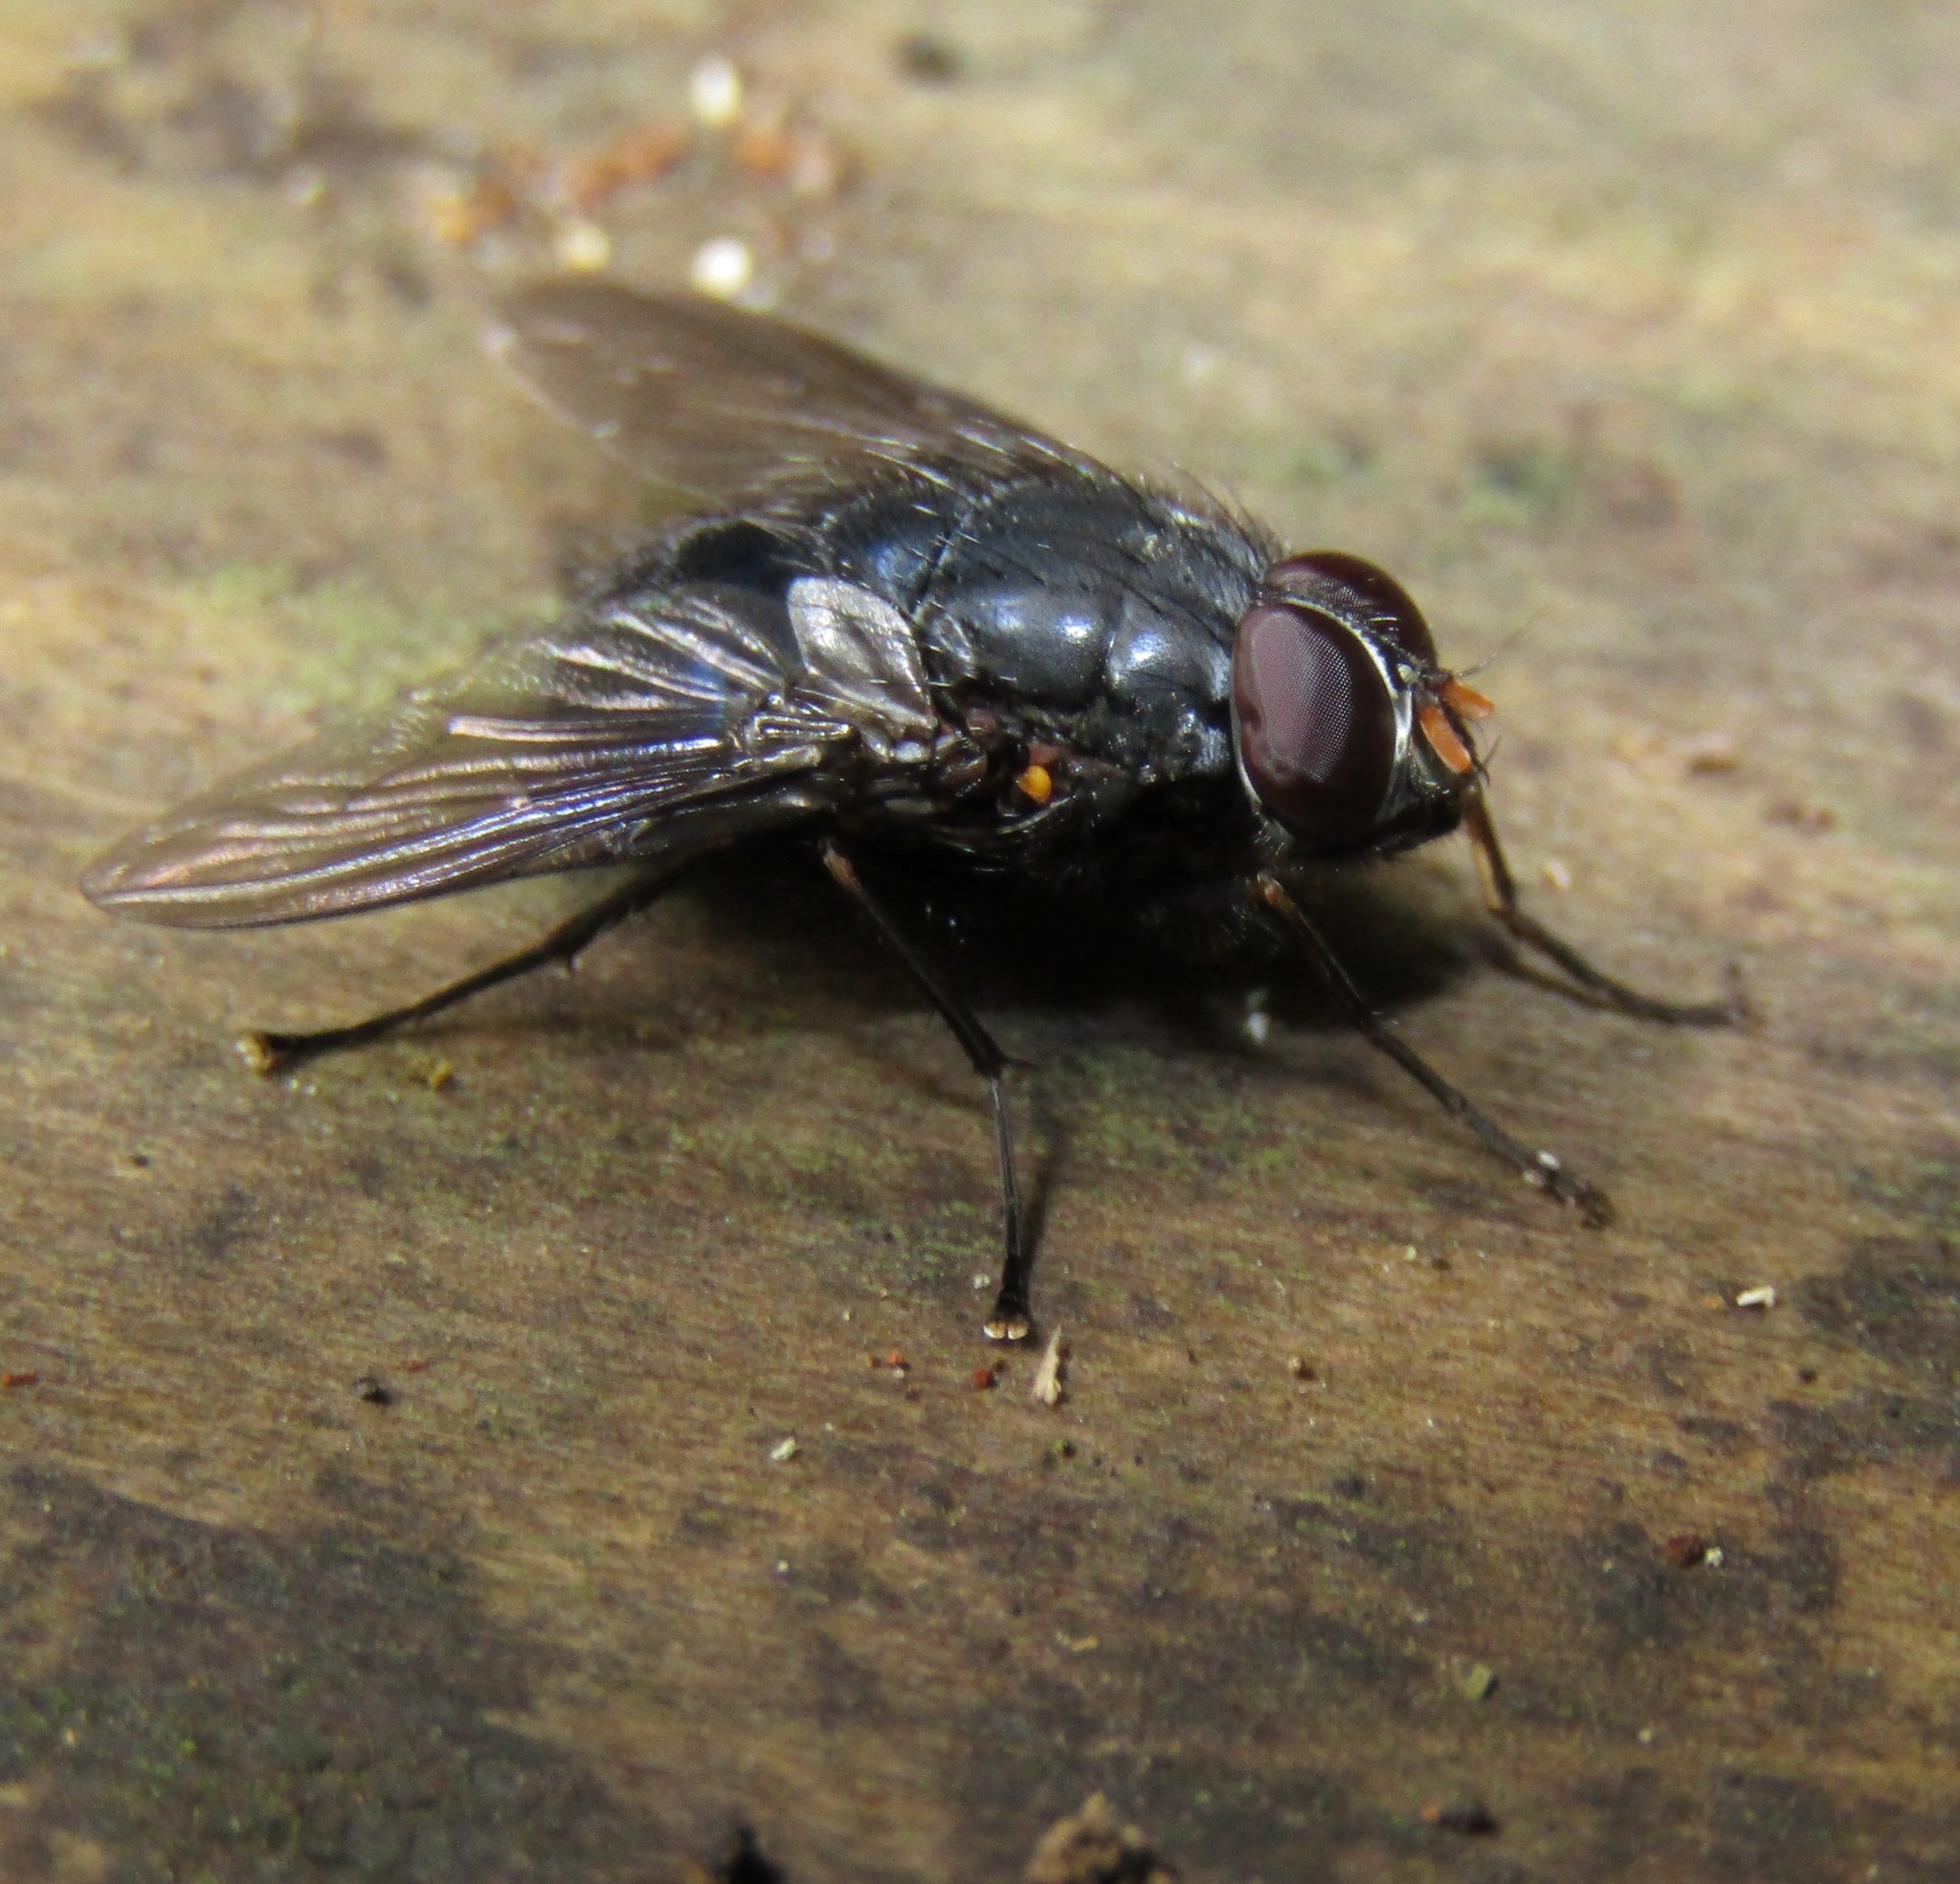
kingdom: Animalia
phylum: Arthropoda
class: Insecta
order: Diptera
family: Muscidae
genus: Calliphoroides
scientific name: Calliphoroides antennatis
